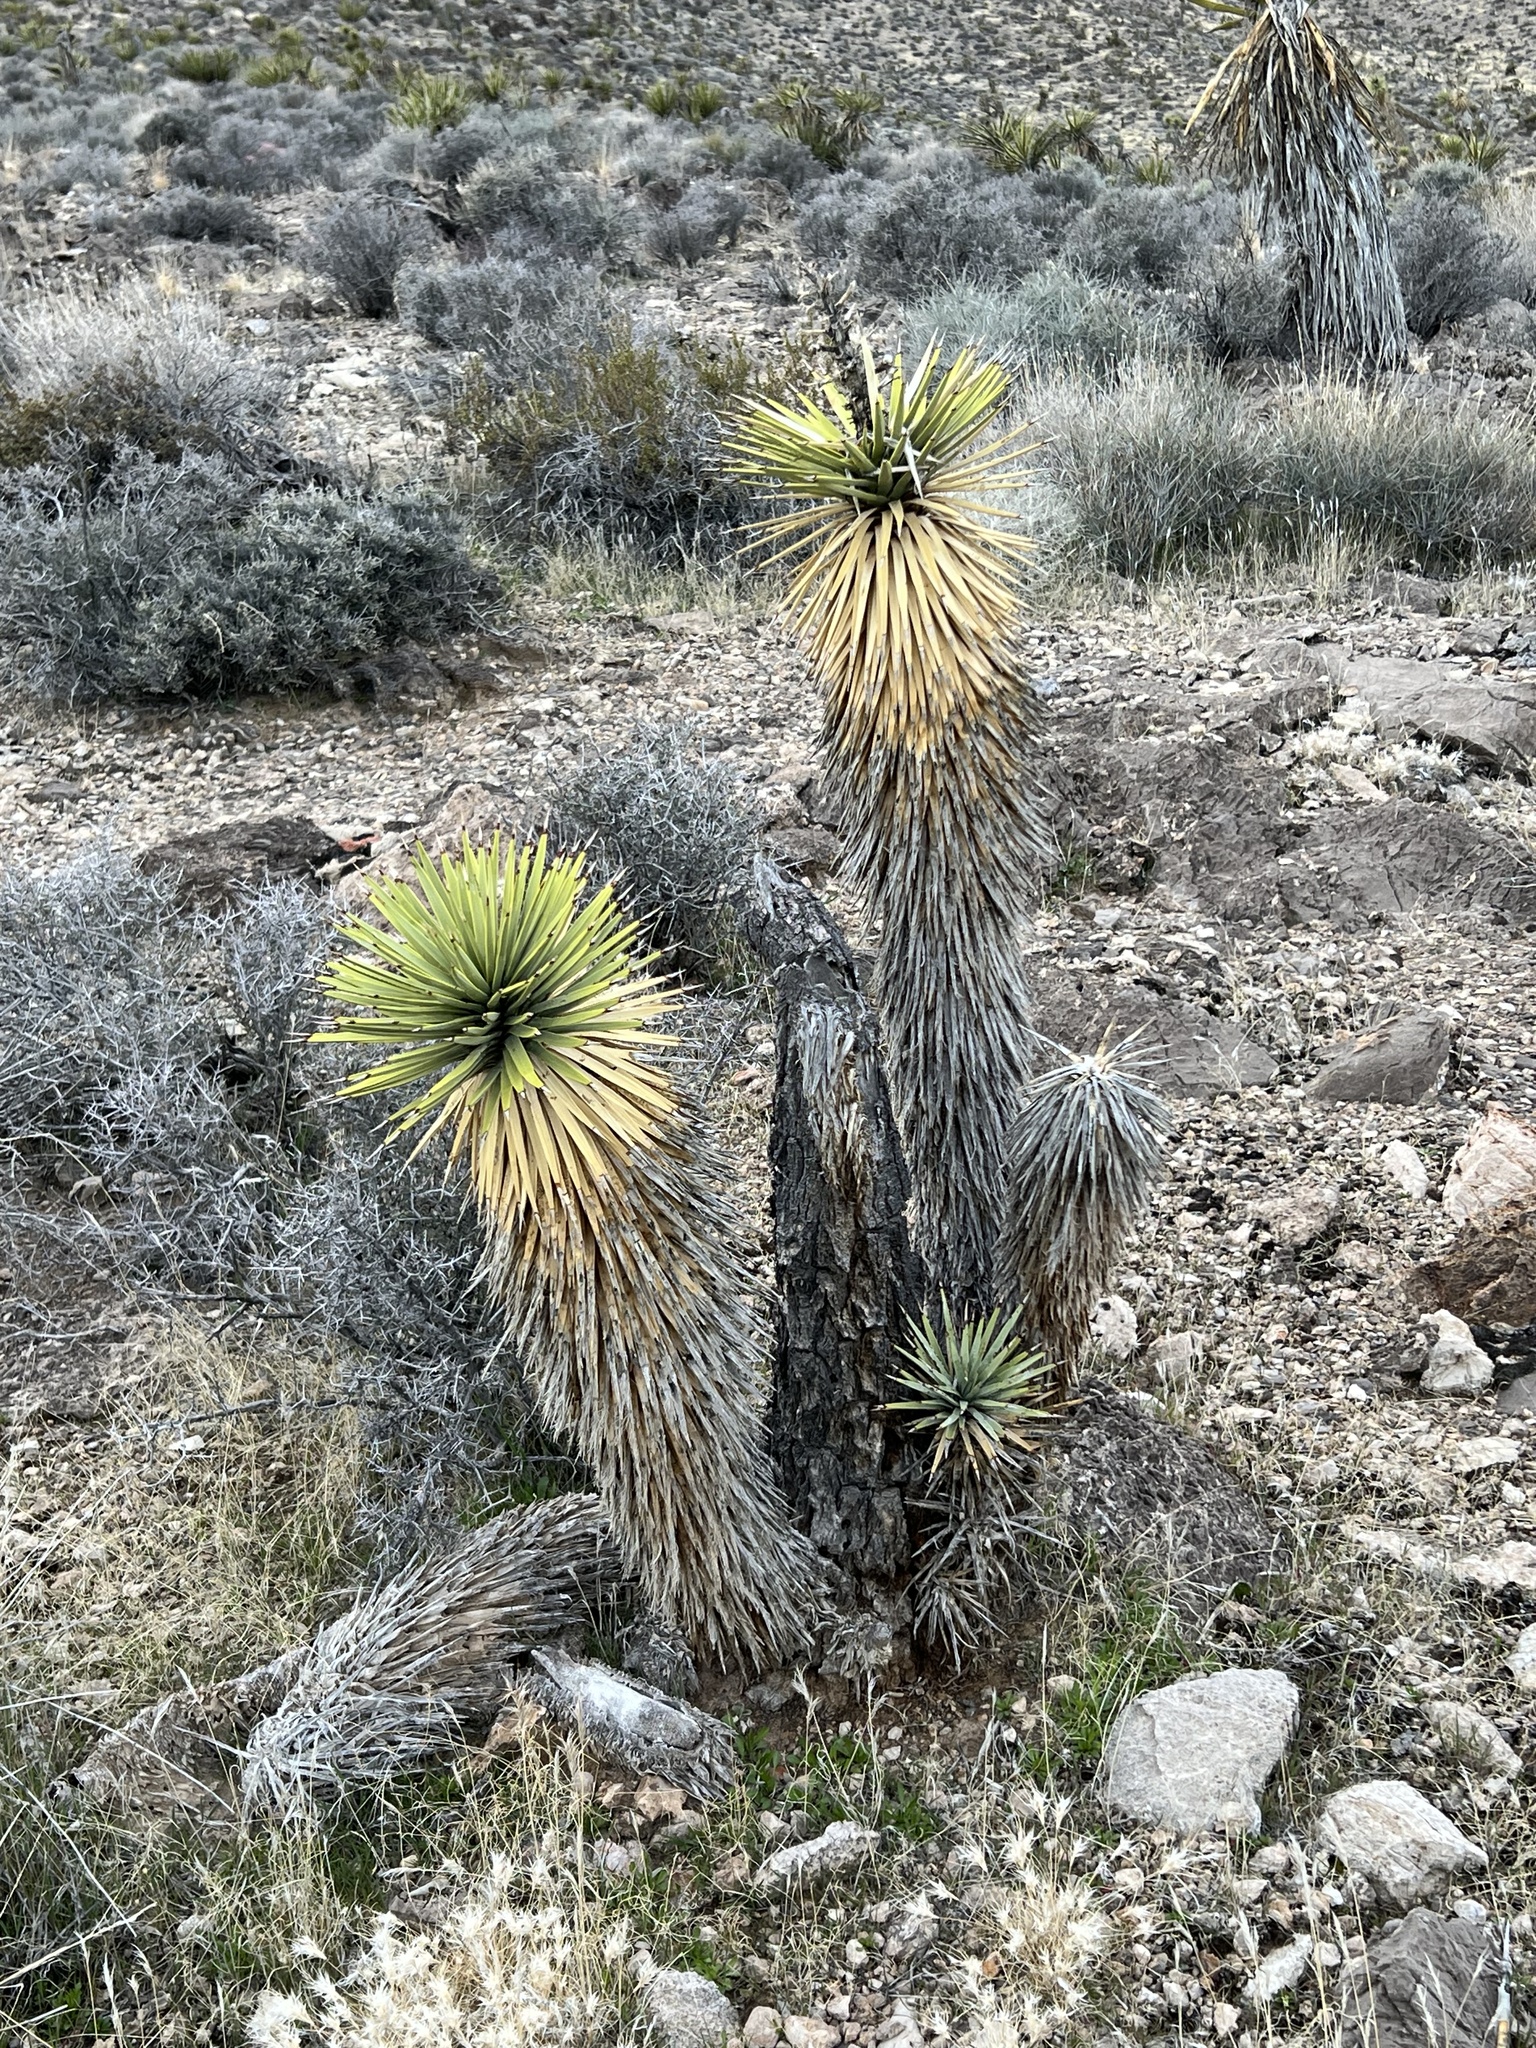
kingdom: Plantae
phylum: Tracheophyta
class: Liliopsida
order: Asparagales
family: Asparagaceae
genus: Yucca
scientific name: Yucca brevifolia
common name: Joshua tree
